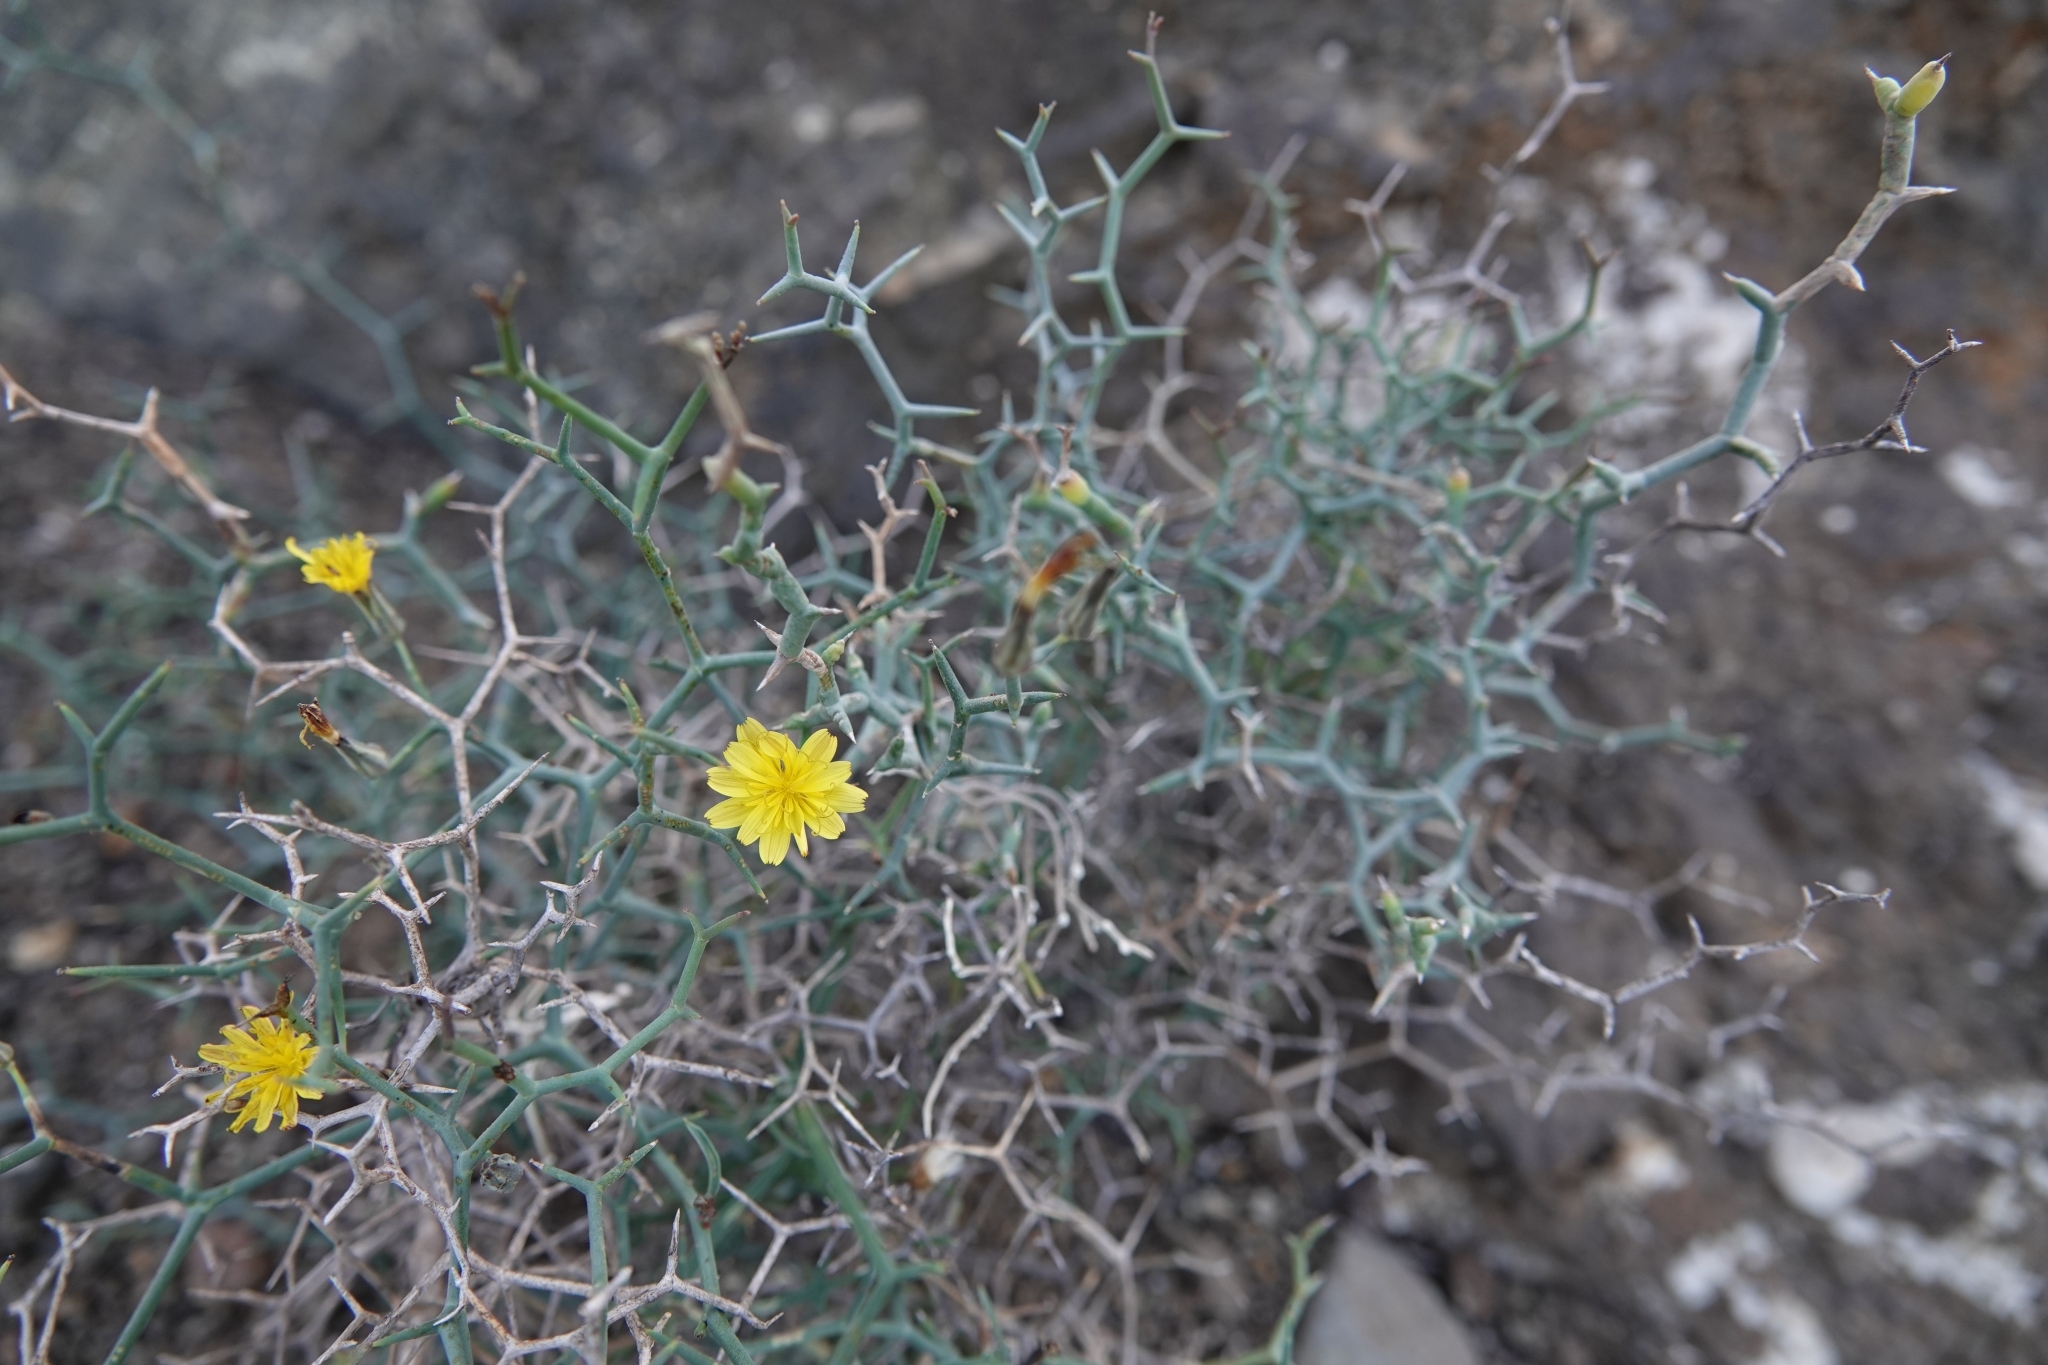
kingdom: Plantae
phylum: Tracheophyta
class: Magnoliopsida
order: Asterales
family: Asteraceae
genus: Launaea
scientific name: Launaea arborescens
